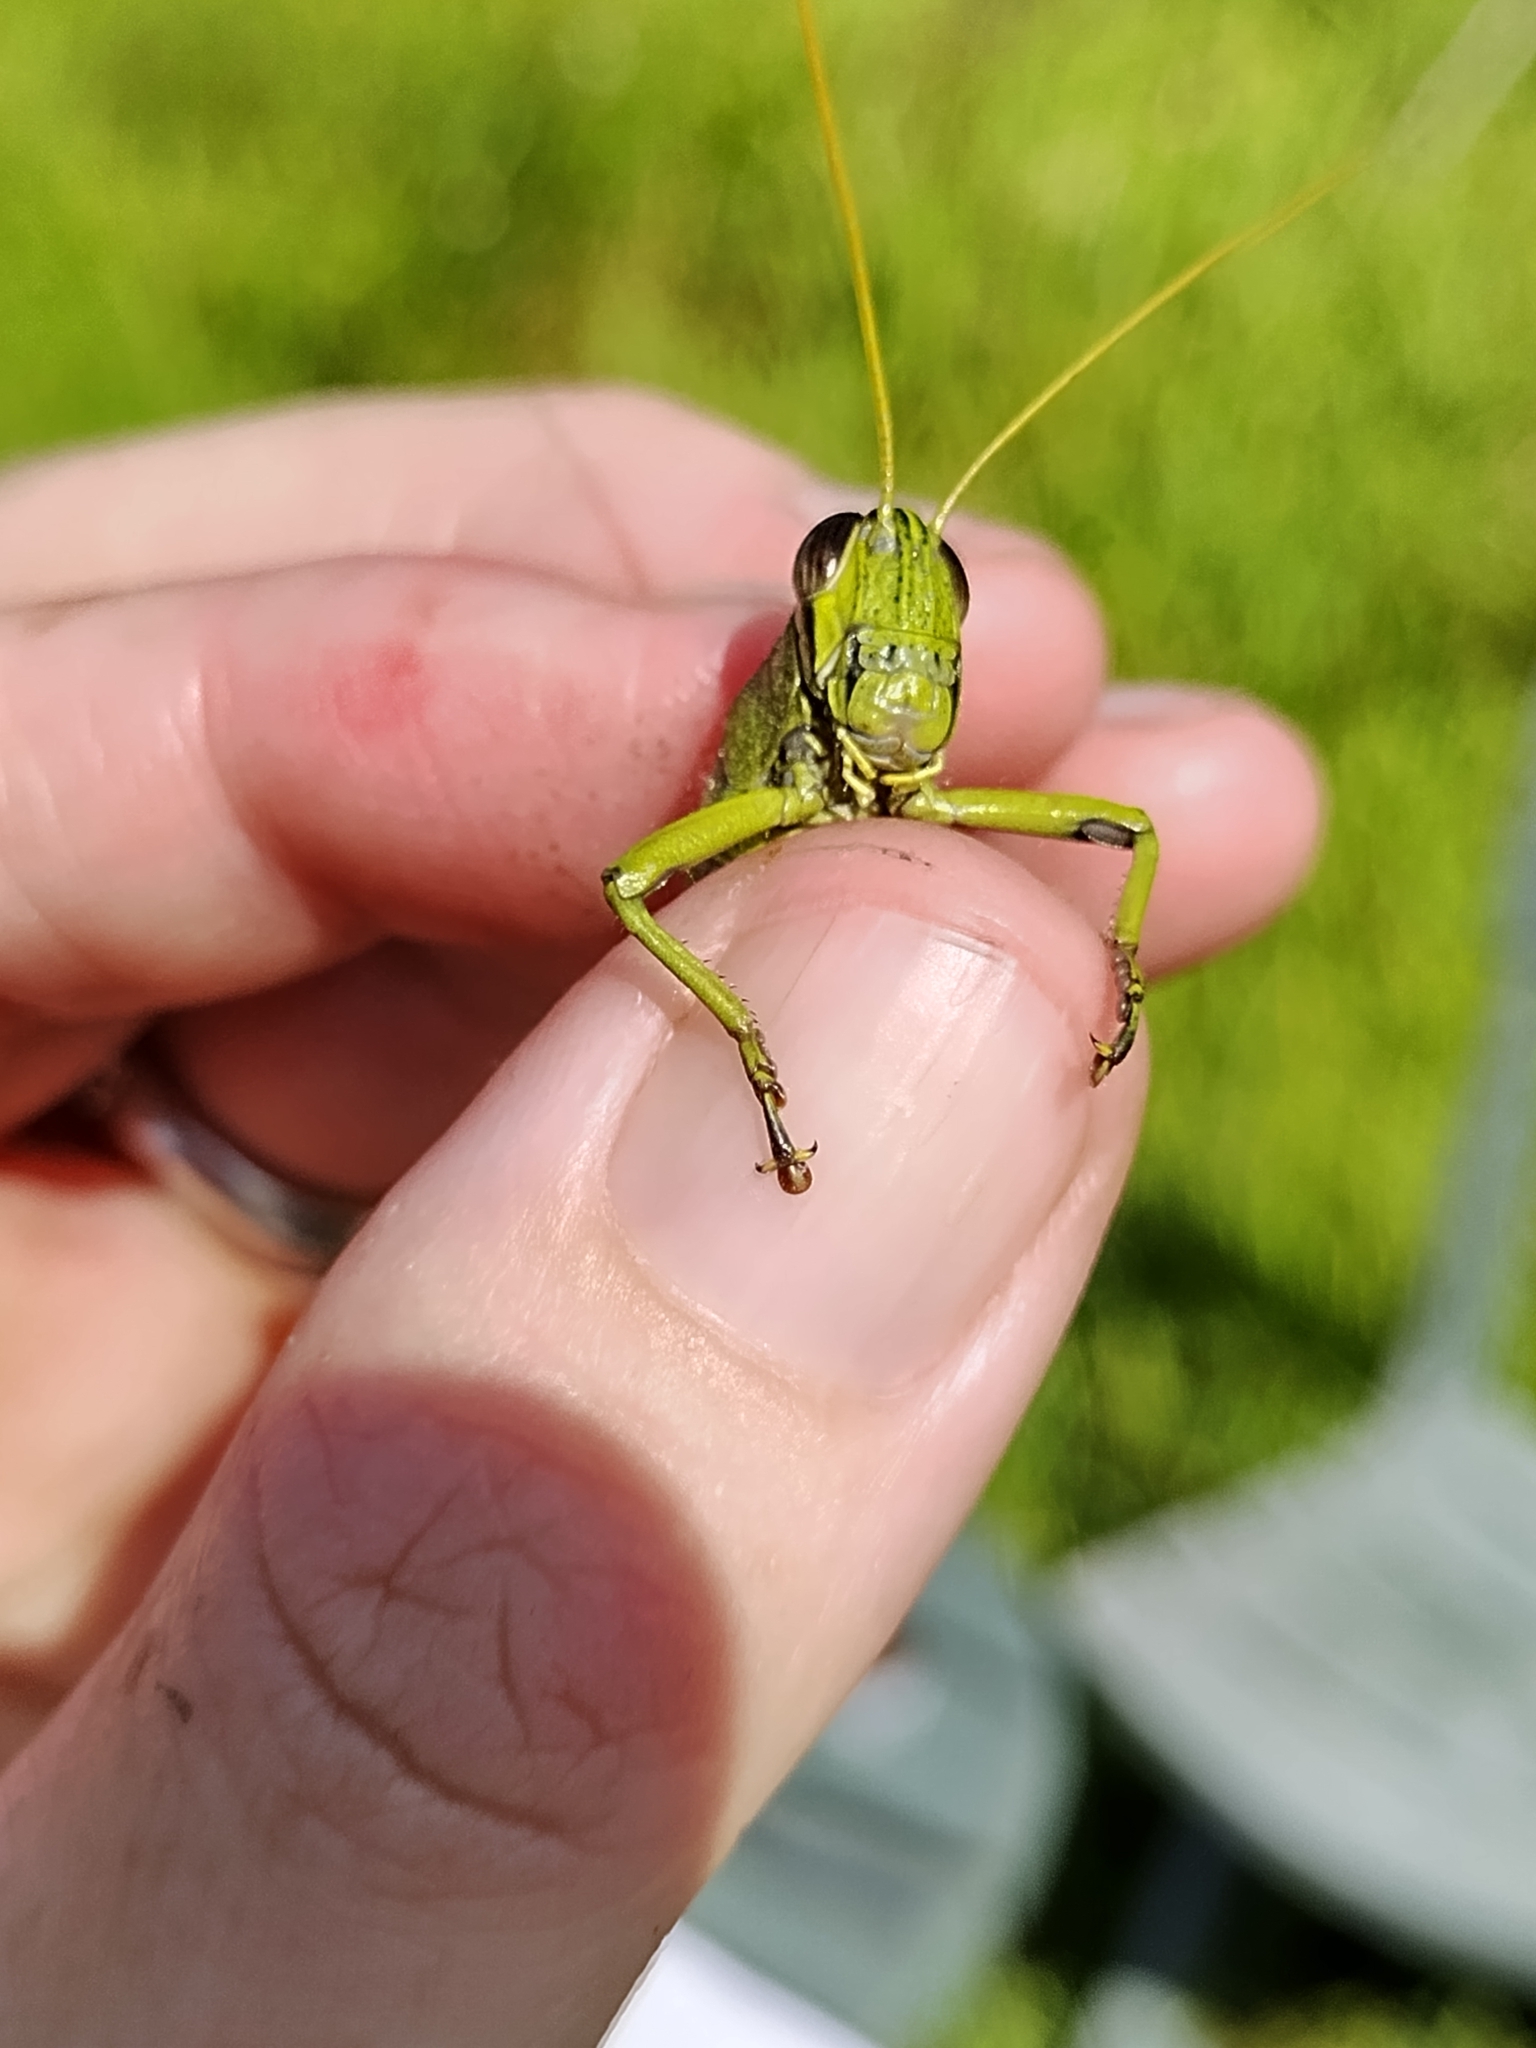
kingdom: Animalia
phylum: Arthropoda
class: Insecta
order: Orthoptera
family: Acrididae
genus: Schistocerca
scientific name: Schistocerca obscura
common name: Obscure bird grasshopper
